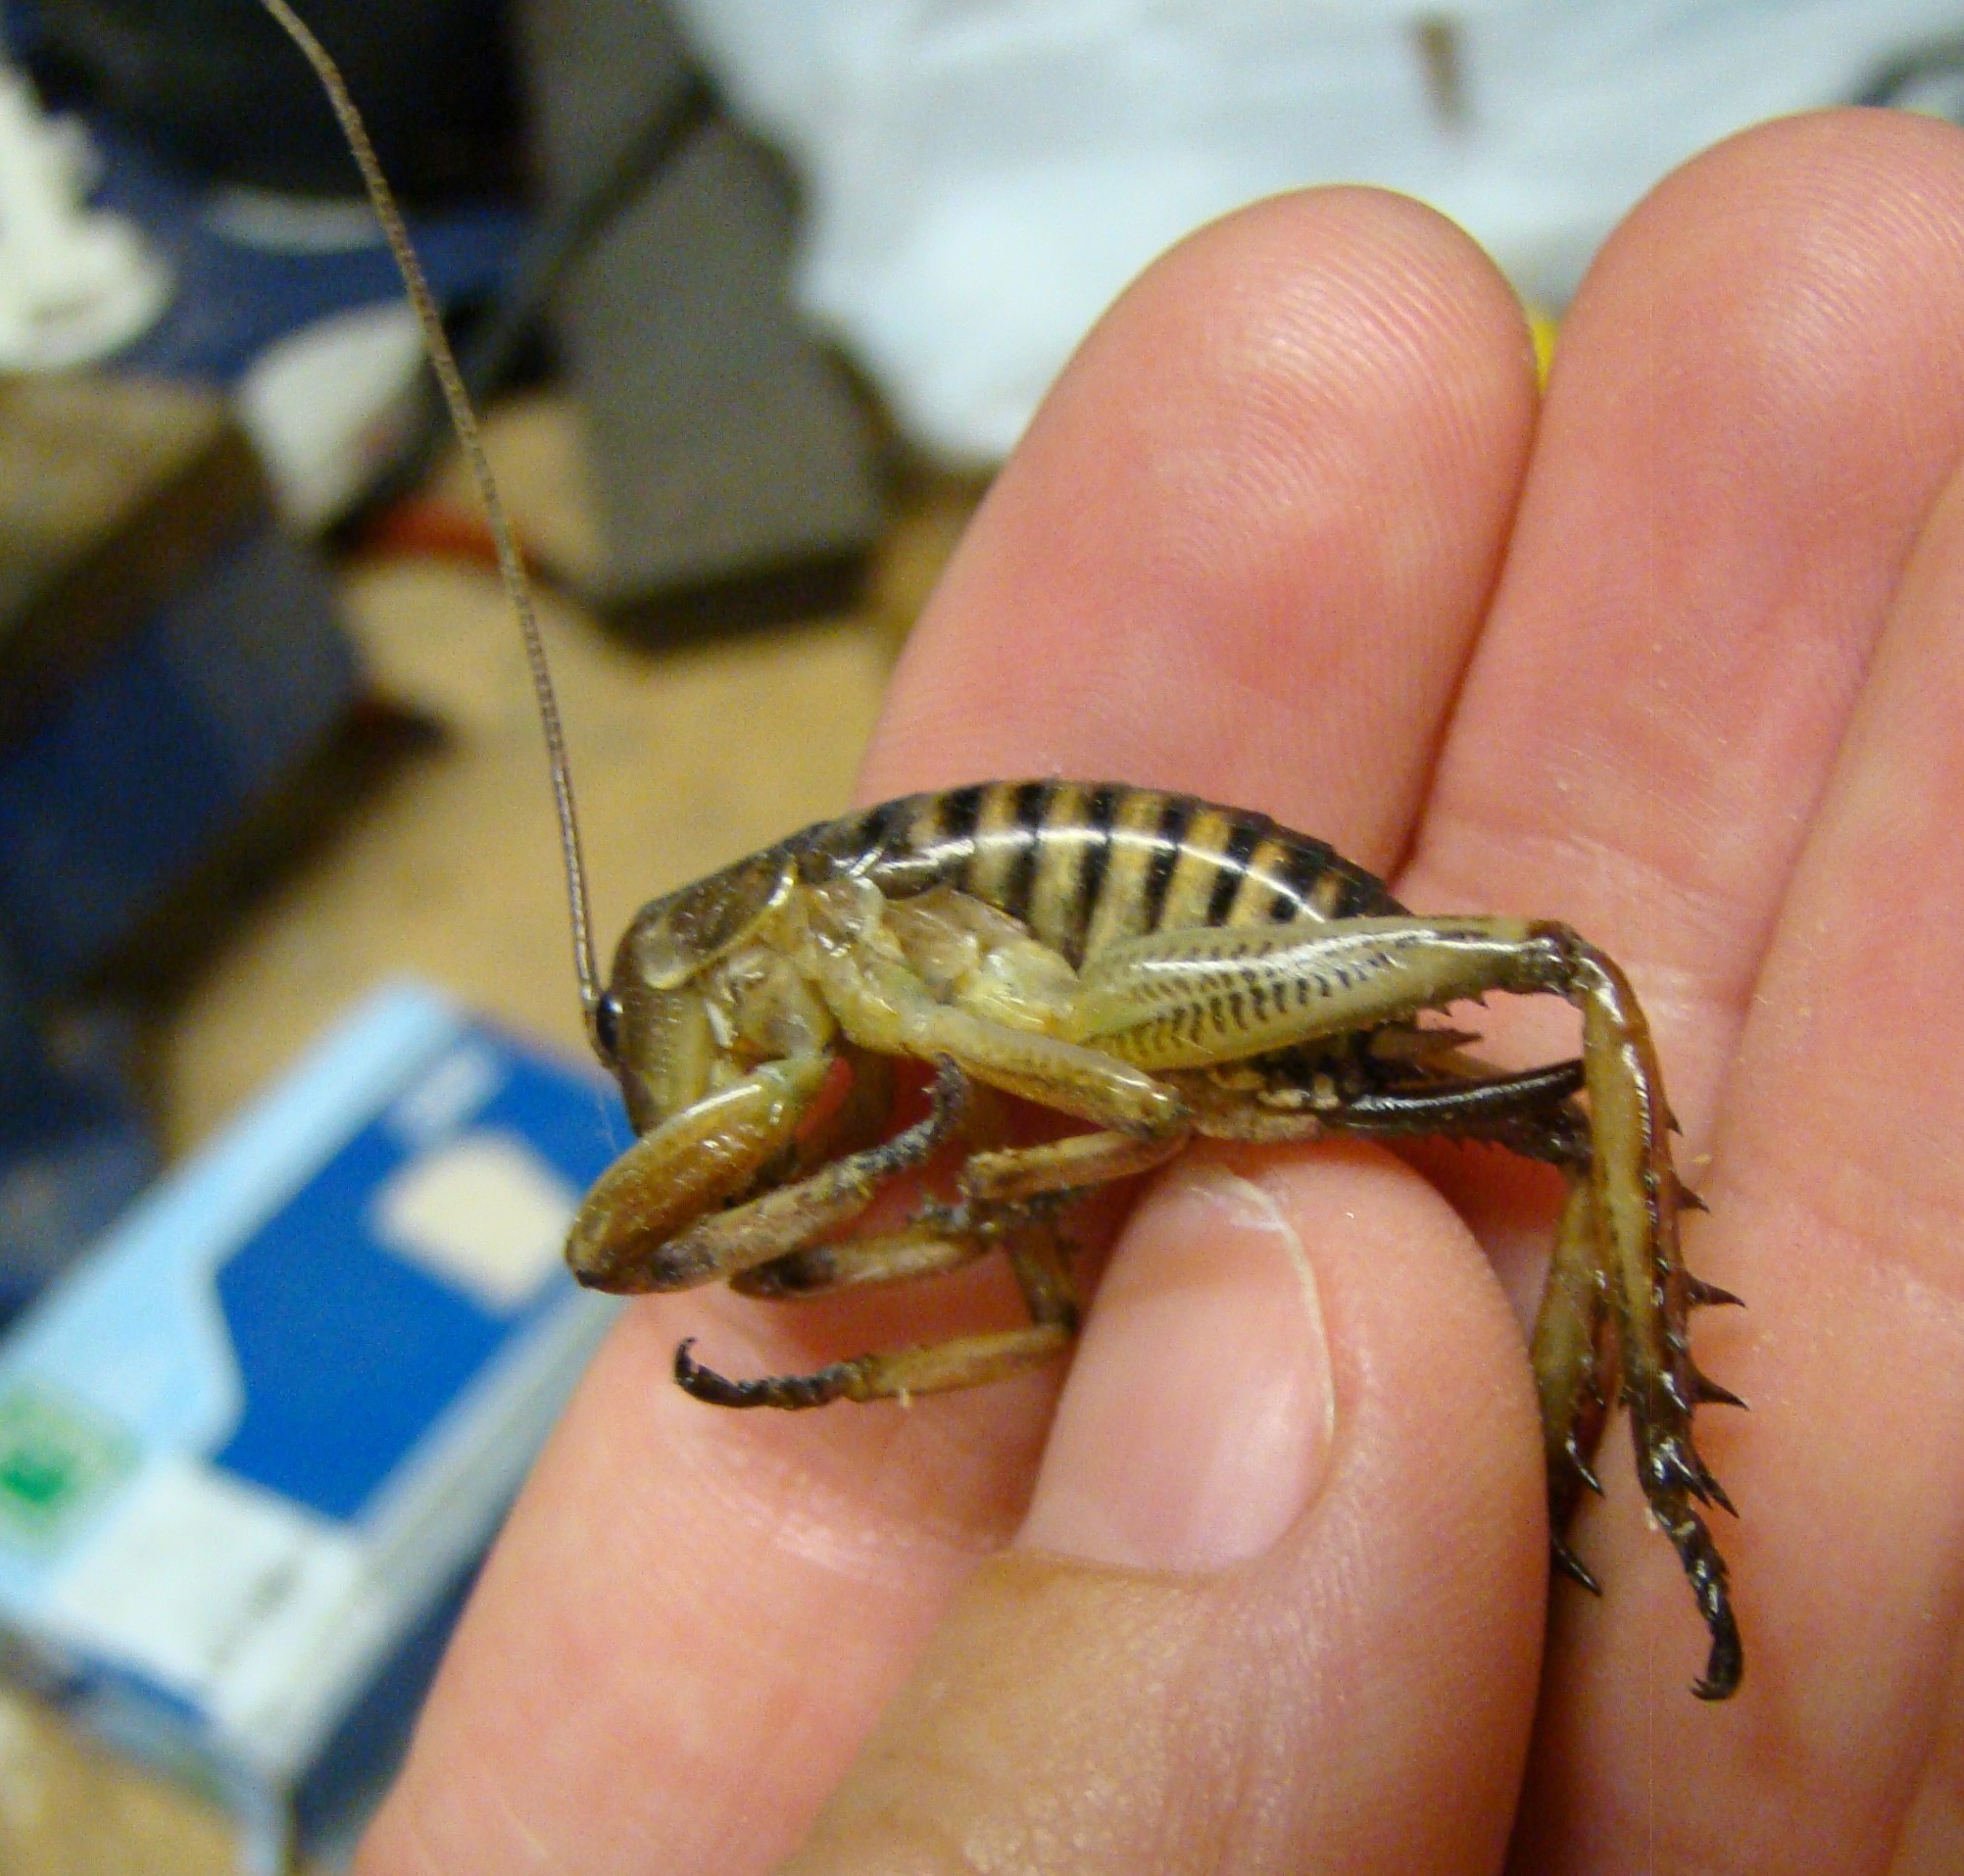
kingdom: Animalia
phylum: Arthropoda
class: Insecta
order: Orthoptera
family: Anostostomatidae
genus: Hemideina
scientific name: Hemideina crassidens
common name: Wellington tree weta
